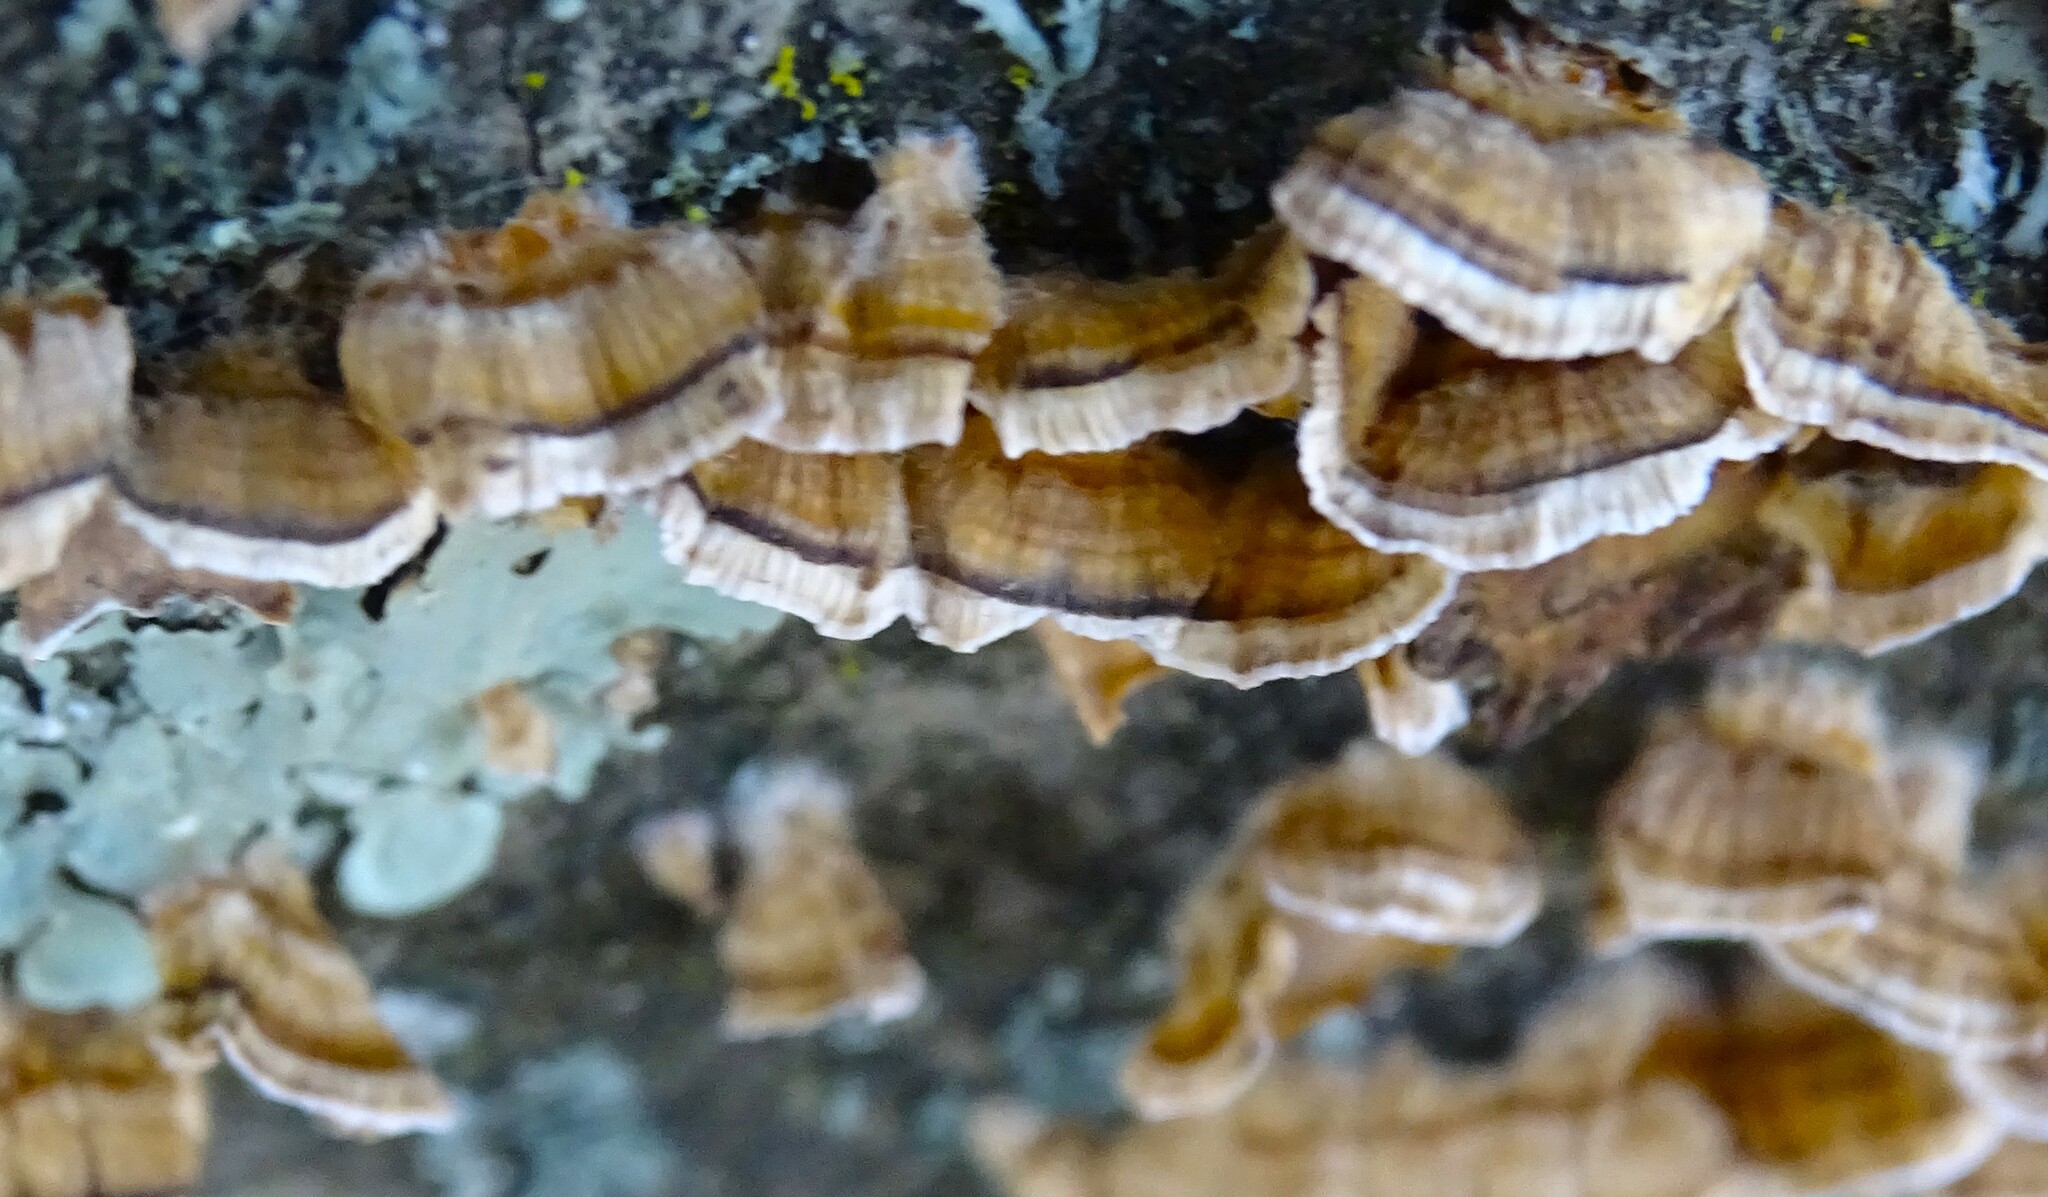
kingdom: Fungi
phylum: Basidiomycota
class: Agaricomycetes
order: Agaricales
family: Mycenaceae
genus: Panellus
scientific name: Panellus stipticus
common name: Bitter oysterling
